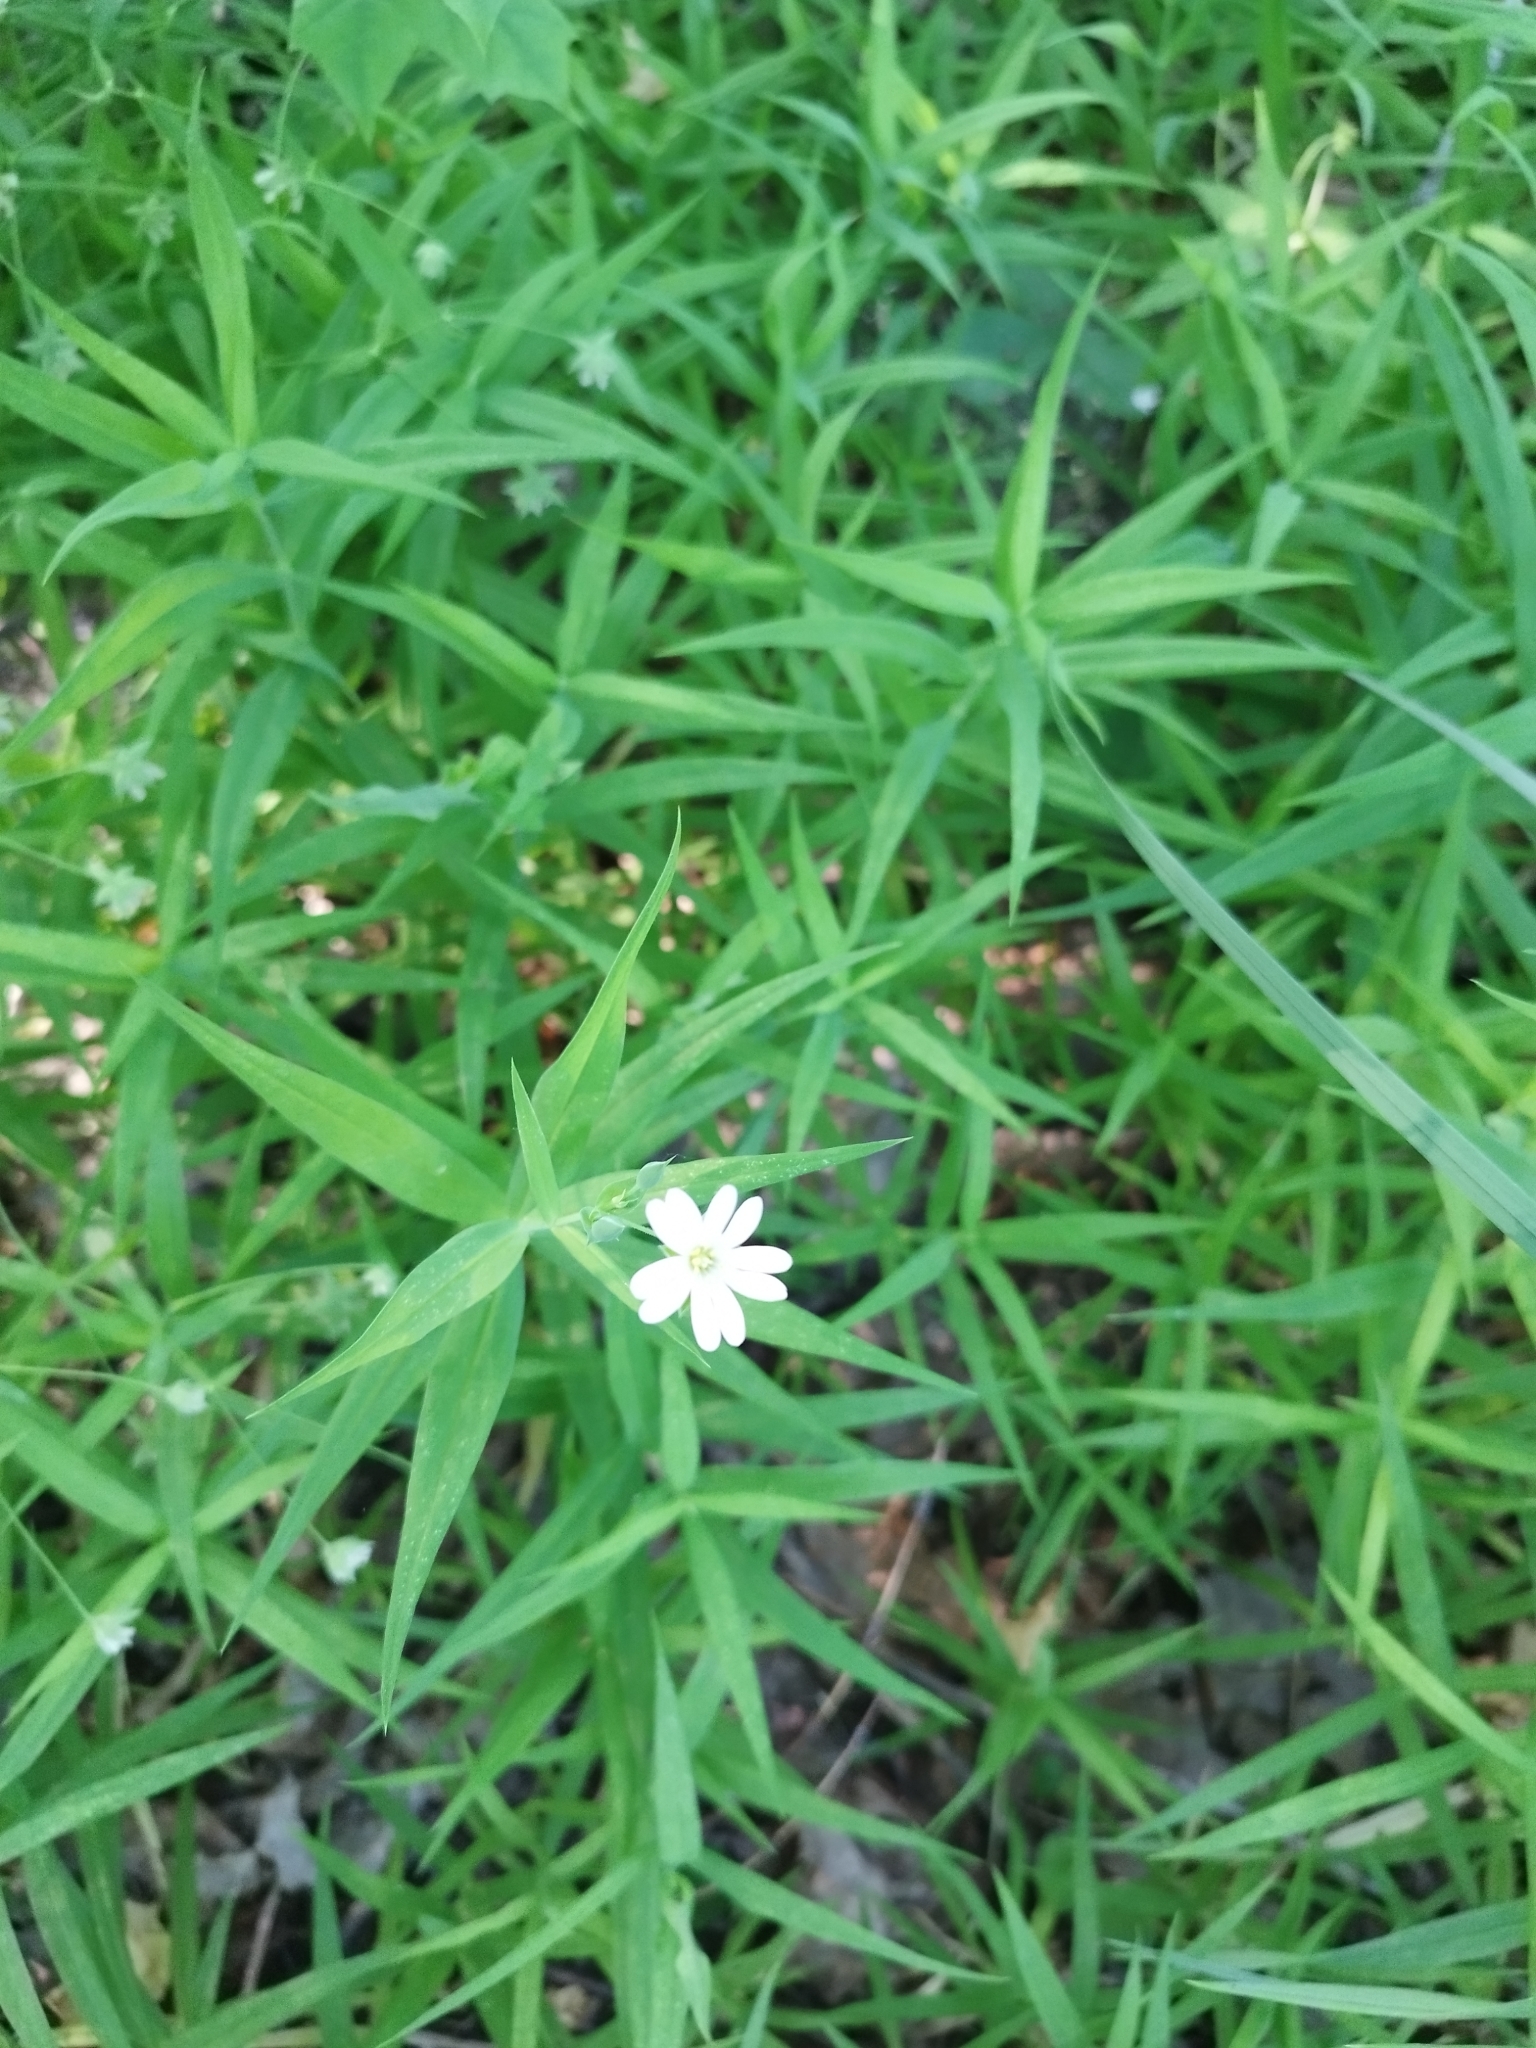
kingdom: Plantae
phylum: Tracheophyta
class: Magnoliopsida
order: Caryophyllales
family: Caryophyllaceae
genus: Rabelera
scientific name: Rabelera holostea
